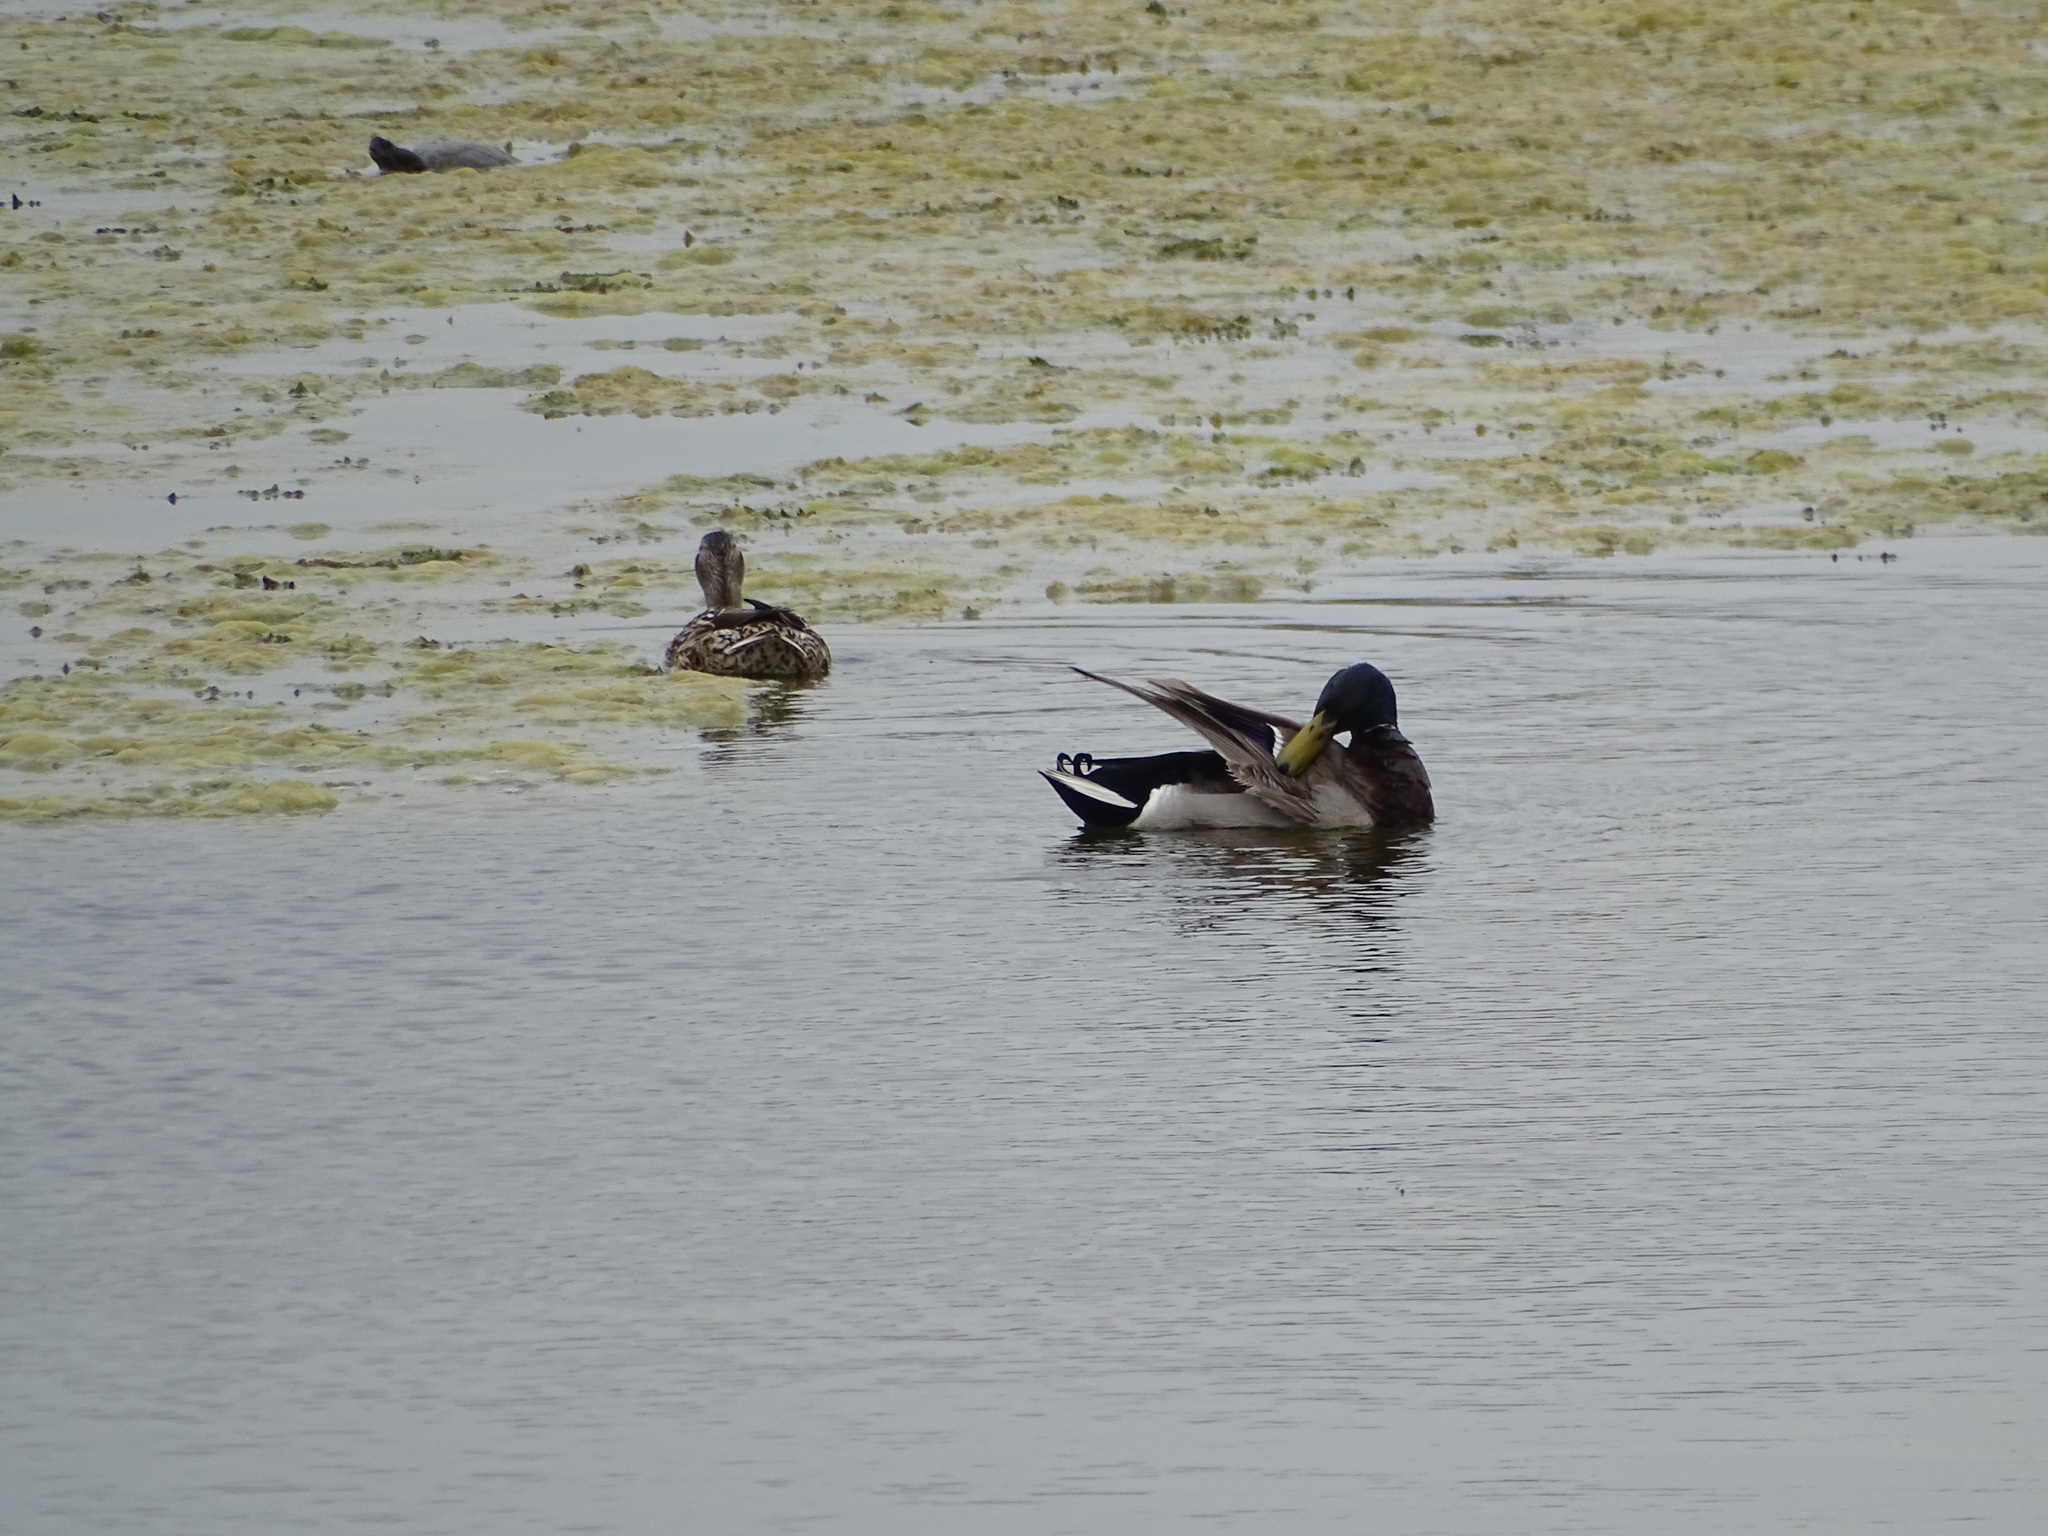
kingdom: Animalia
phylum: Chordata
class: Aves
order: Anseriformes
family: Anatidae
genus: Anas
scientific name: Anas platyrhynchos
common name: Mallard
